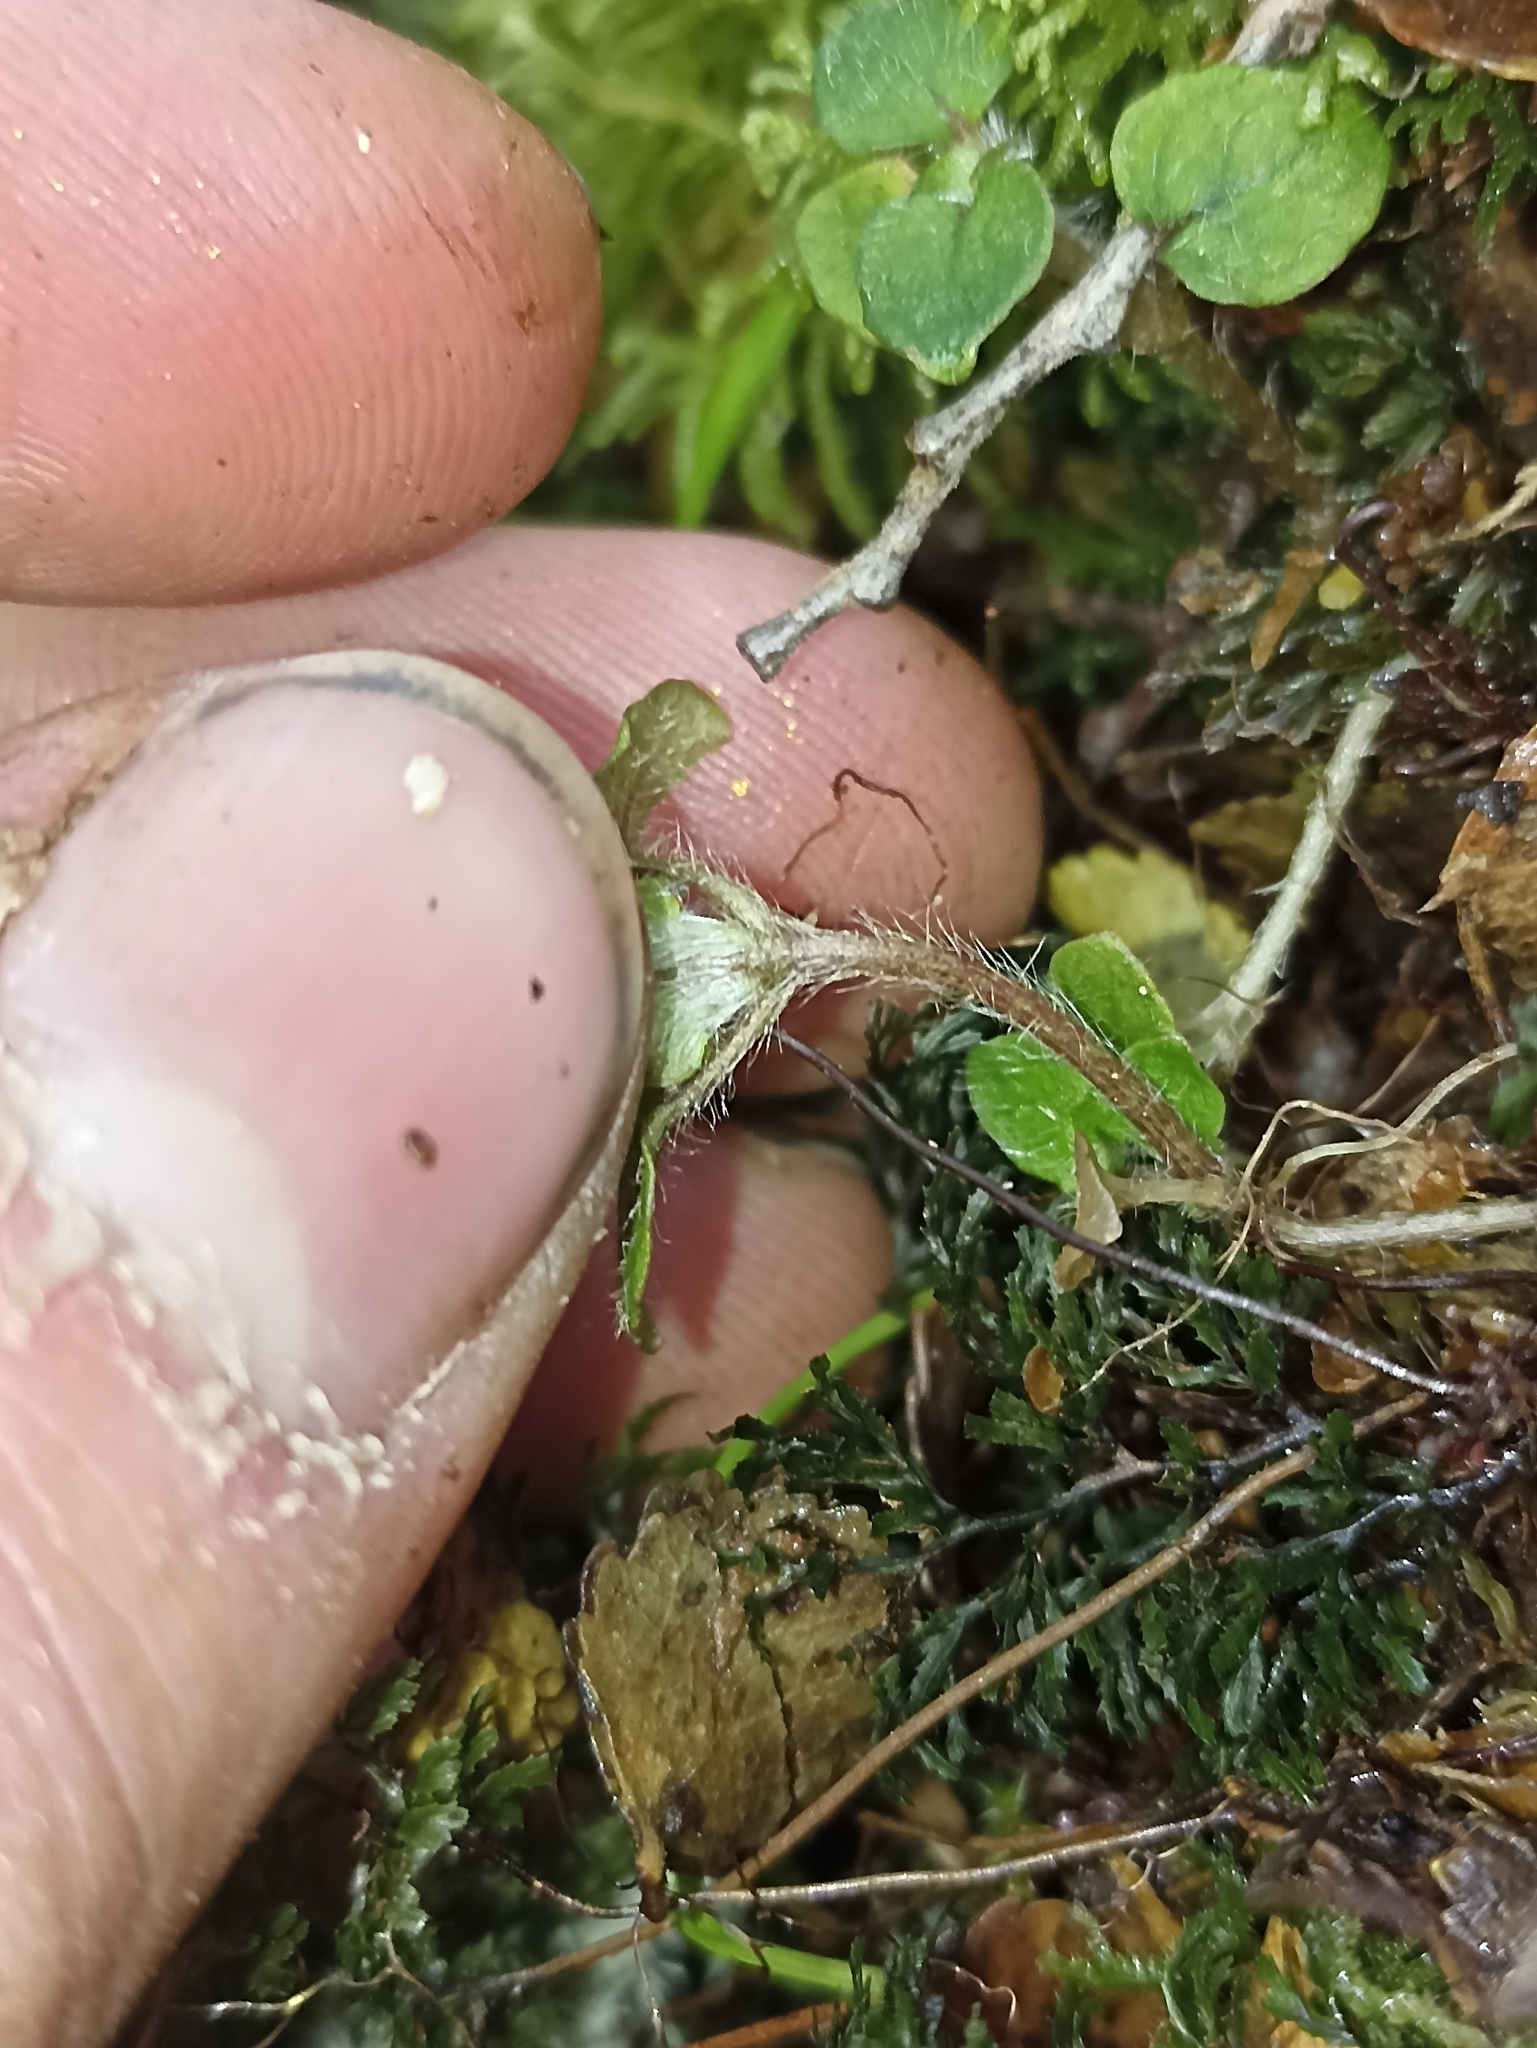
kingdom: Plantae
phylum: Tracheophyta
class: Magnoliopsida
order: Gentianales
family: Rubiaceae
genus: Nertera
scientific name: Nertera villosa
